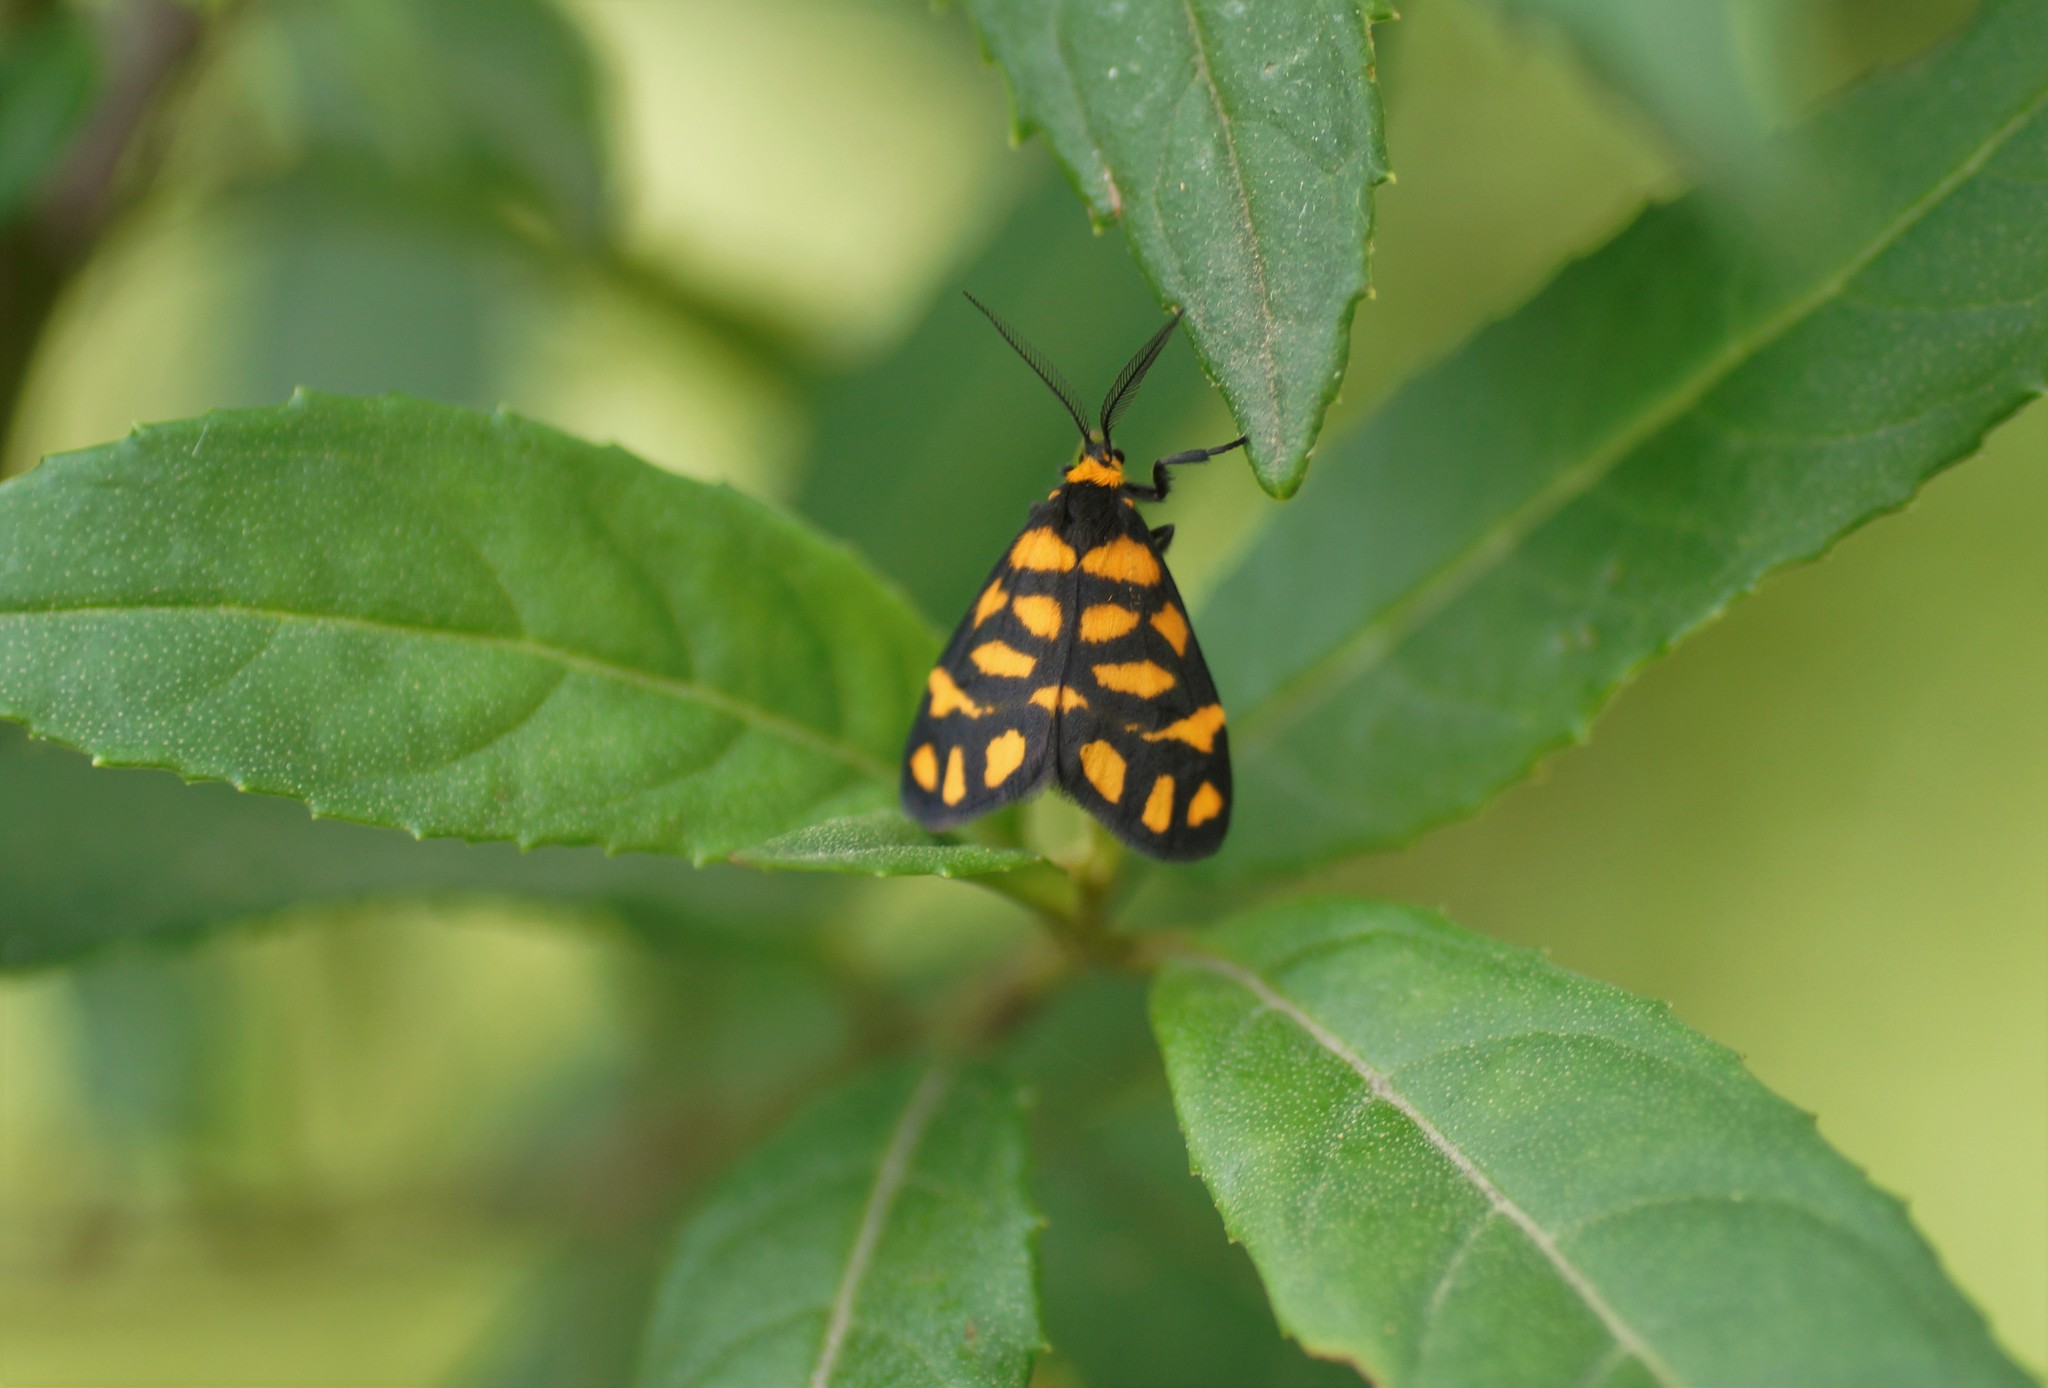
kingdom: Animalia
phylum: Arthropoda
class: Insecta
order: Lepidoptera
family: Erebidae
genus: Asura
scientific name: Asura lydia
